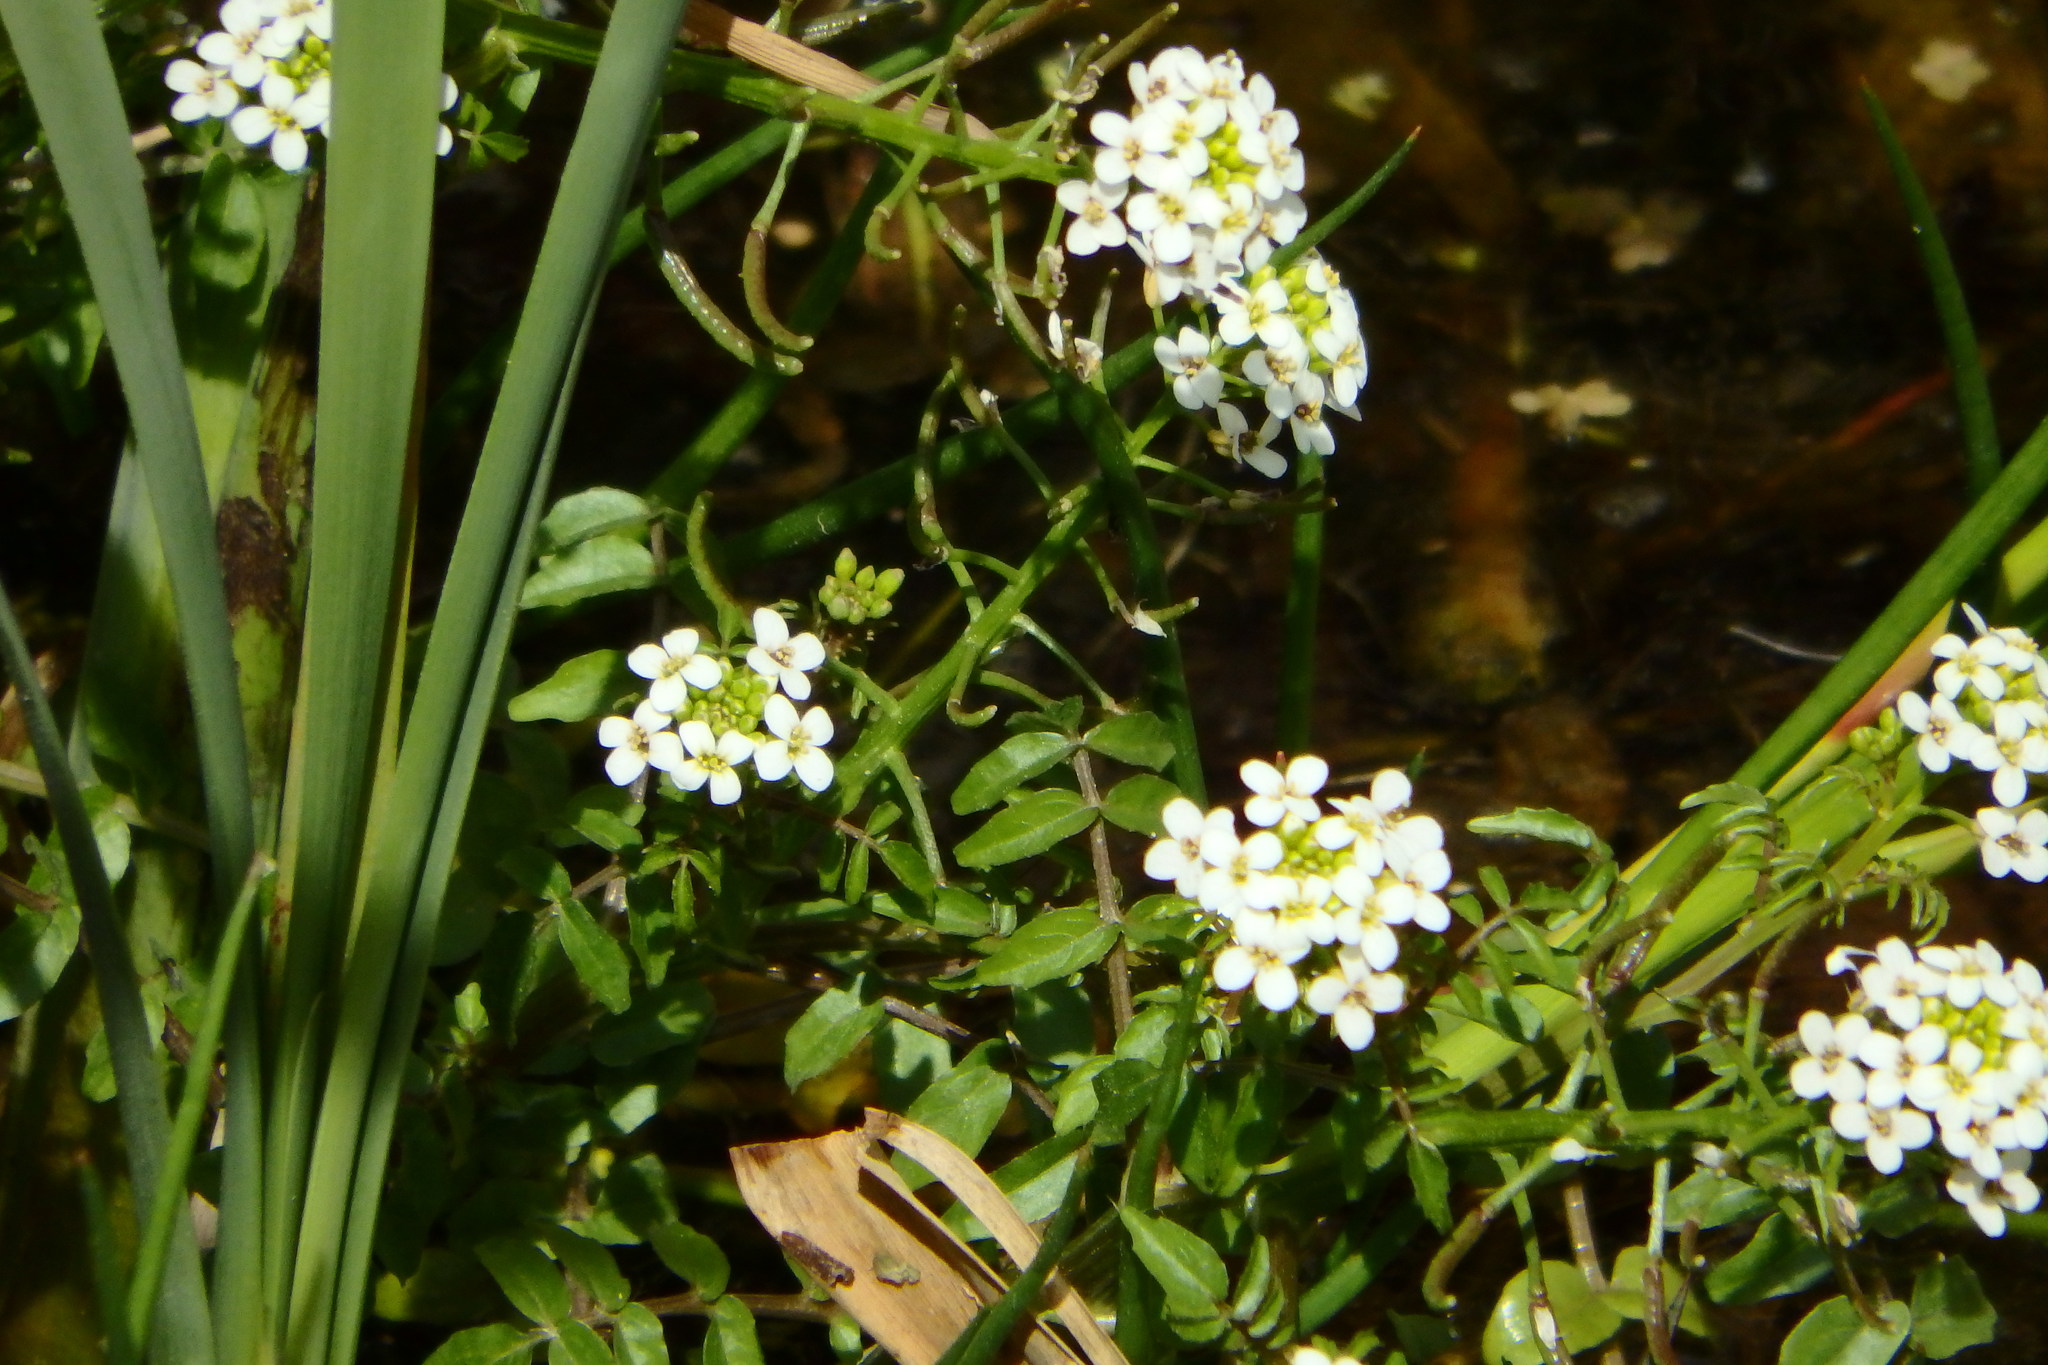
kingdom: Plantae
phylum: Tracheophyta
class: Magnoliopsida
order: Brassicales
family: Brassicaceae
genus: Nasturtium
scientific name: Nasturtium officinale
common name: Watercress
